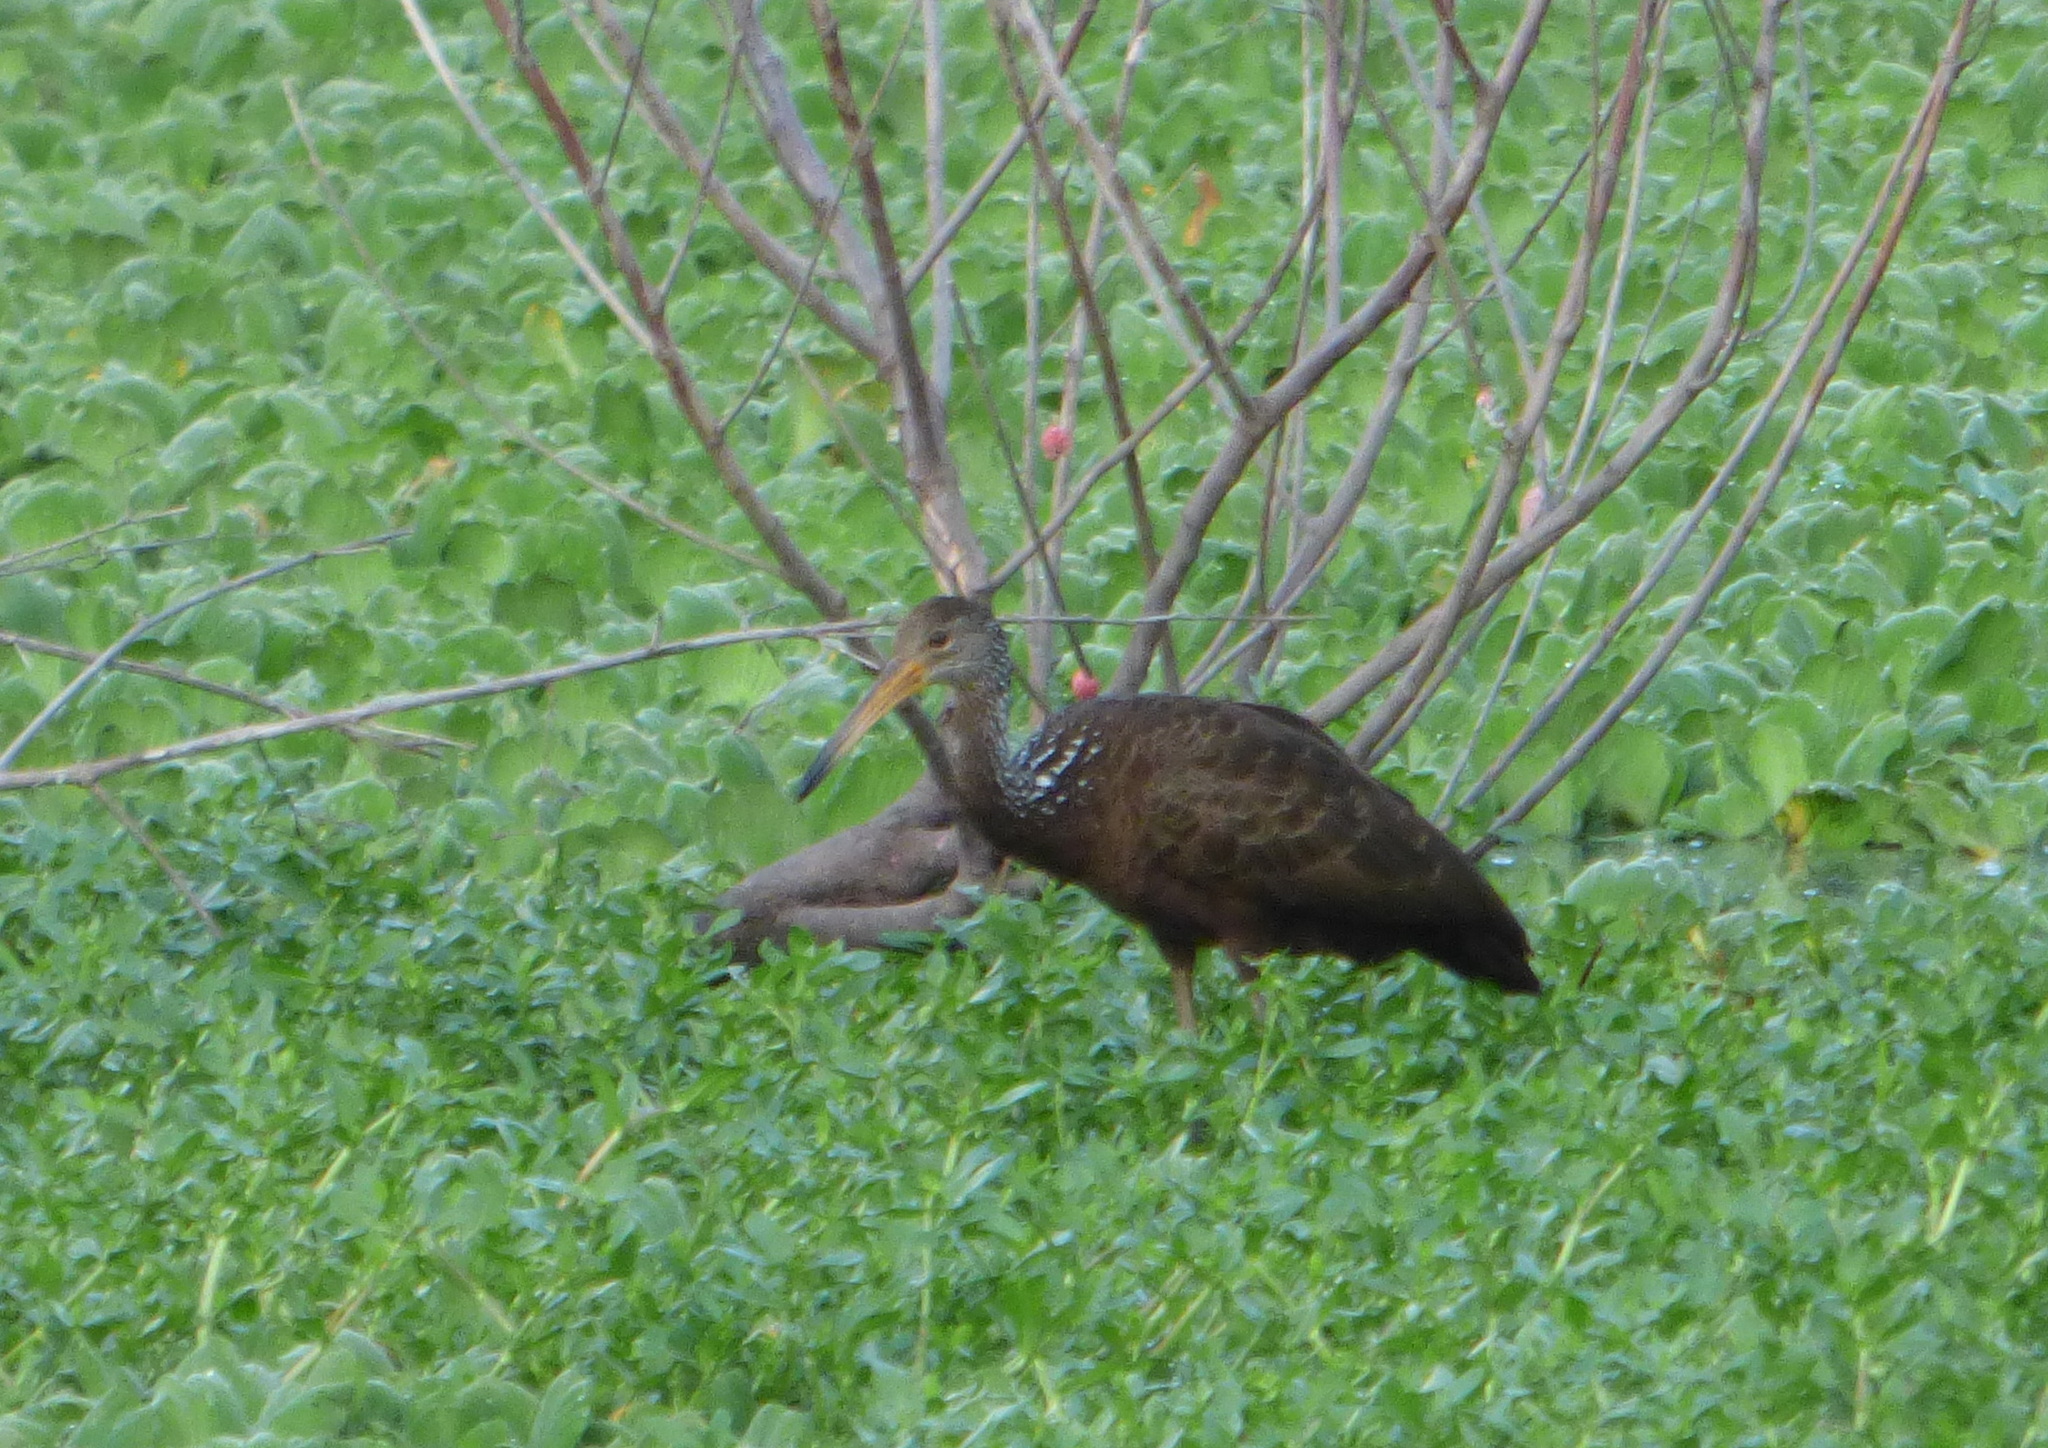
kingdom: Animalia
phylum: Chordata
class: Aves
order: Gruiformes
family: Aramidae
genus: Aramus
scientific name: Aramus guarauna
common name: Limpkin
